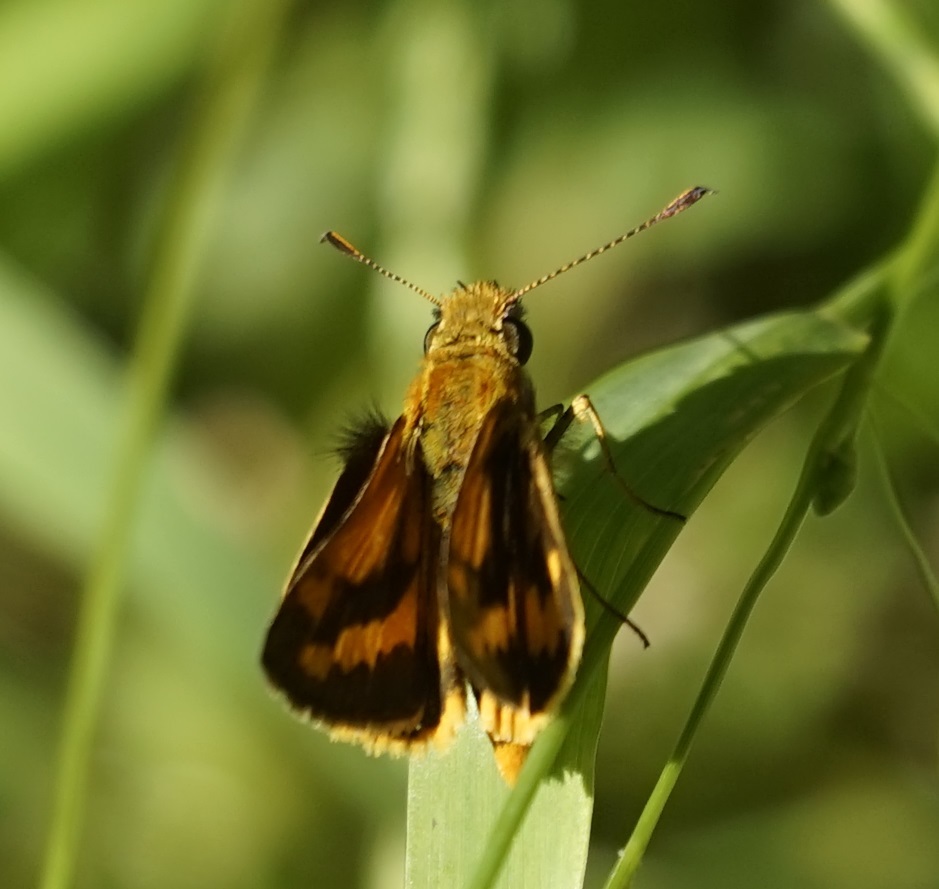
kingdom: Animalia
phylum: Arthropoda
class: Insecta
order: Lepidoptera
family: Hesperiidae
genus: Ocybadistes
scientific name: Ocybadistes walkeri
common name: Yellow-banded dart
